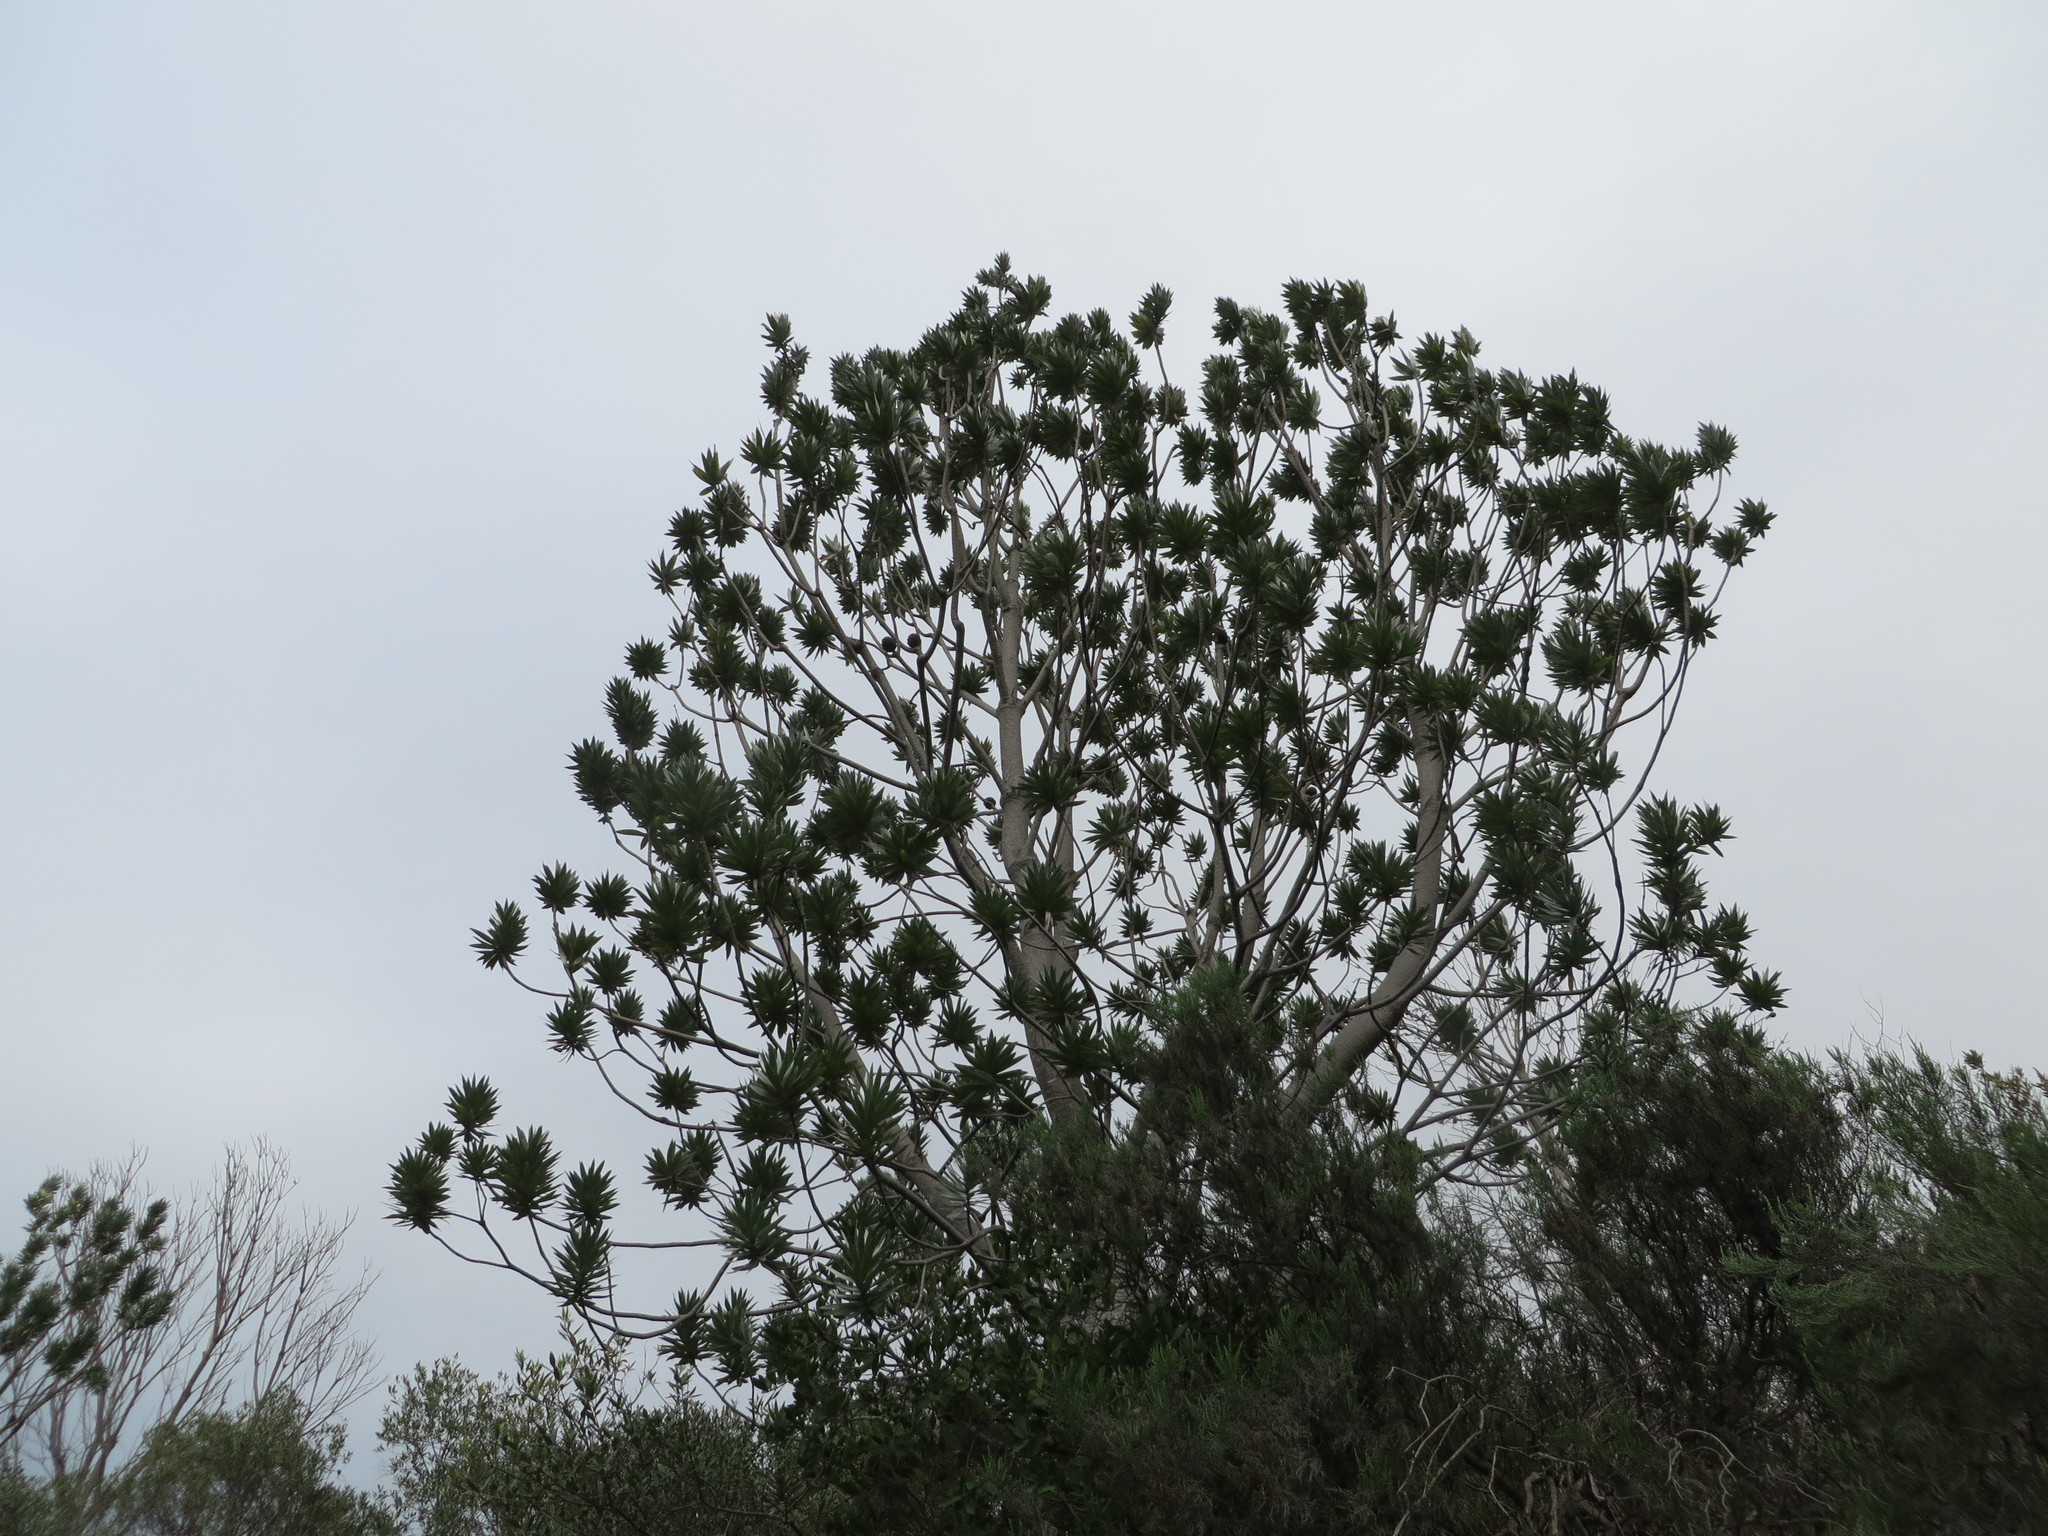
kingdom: Plantae
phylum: Tracheophyta
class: Magnoliopsida
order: Proteales
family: Proteaceae
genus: Leucadendron
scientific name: Leucadendron argenteum
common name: Cape silver tree
